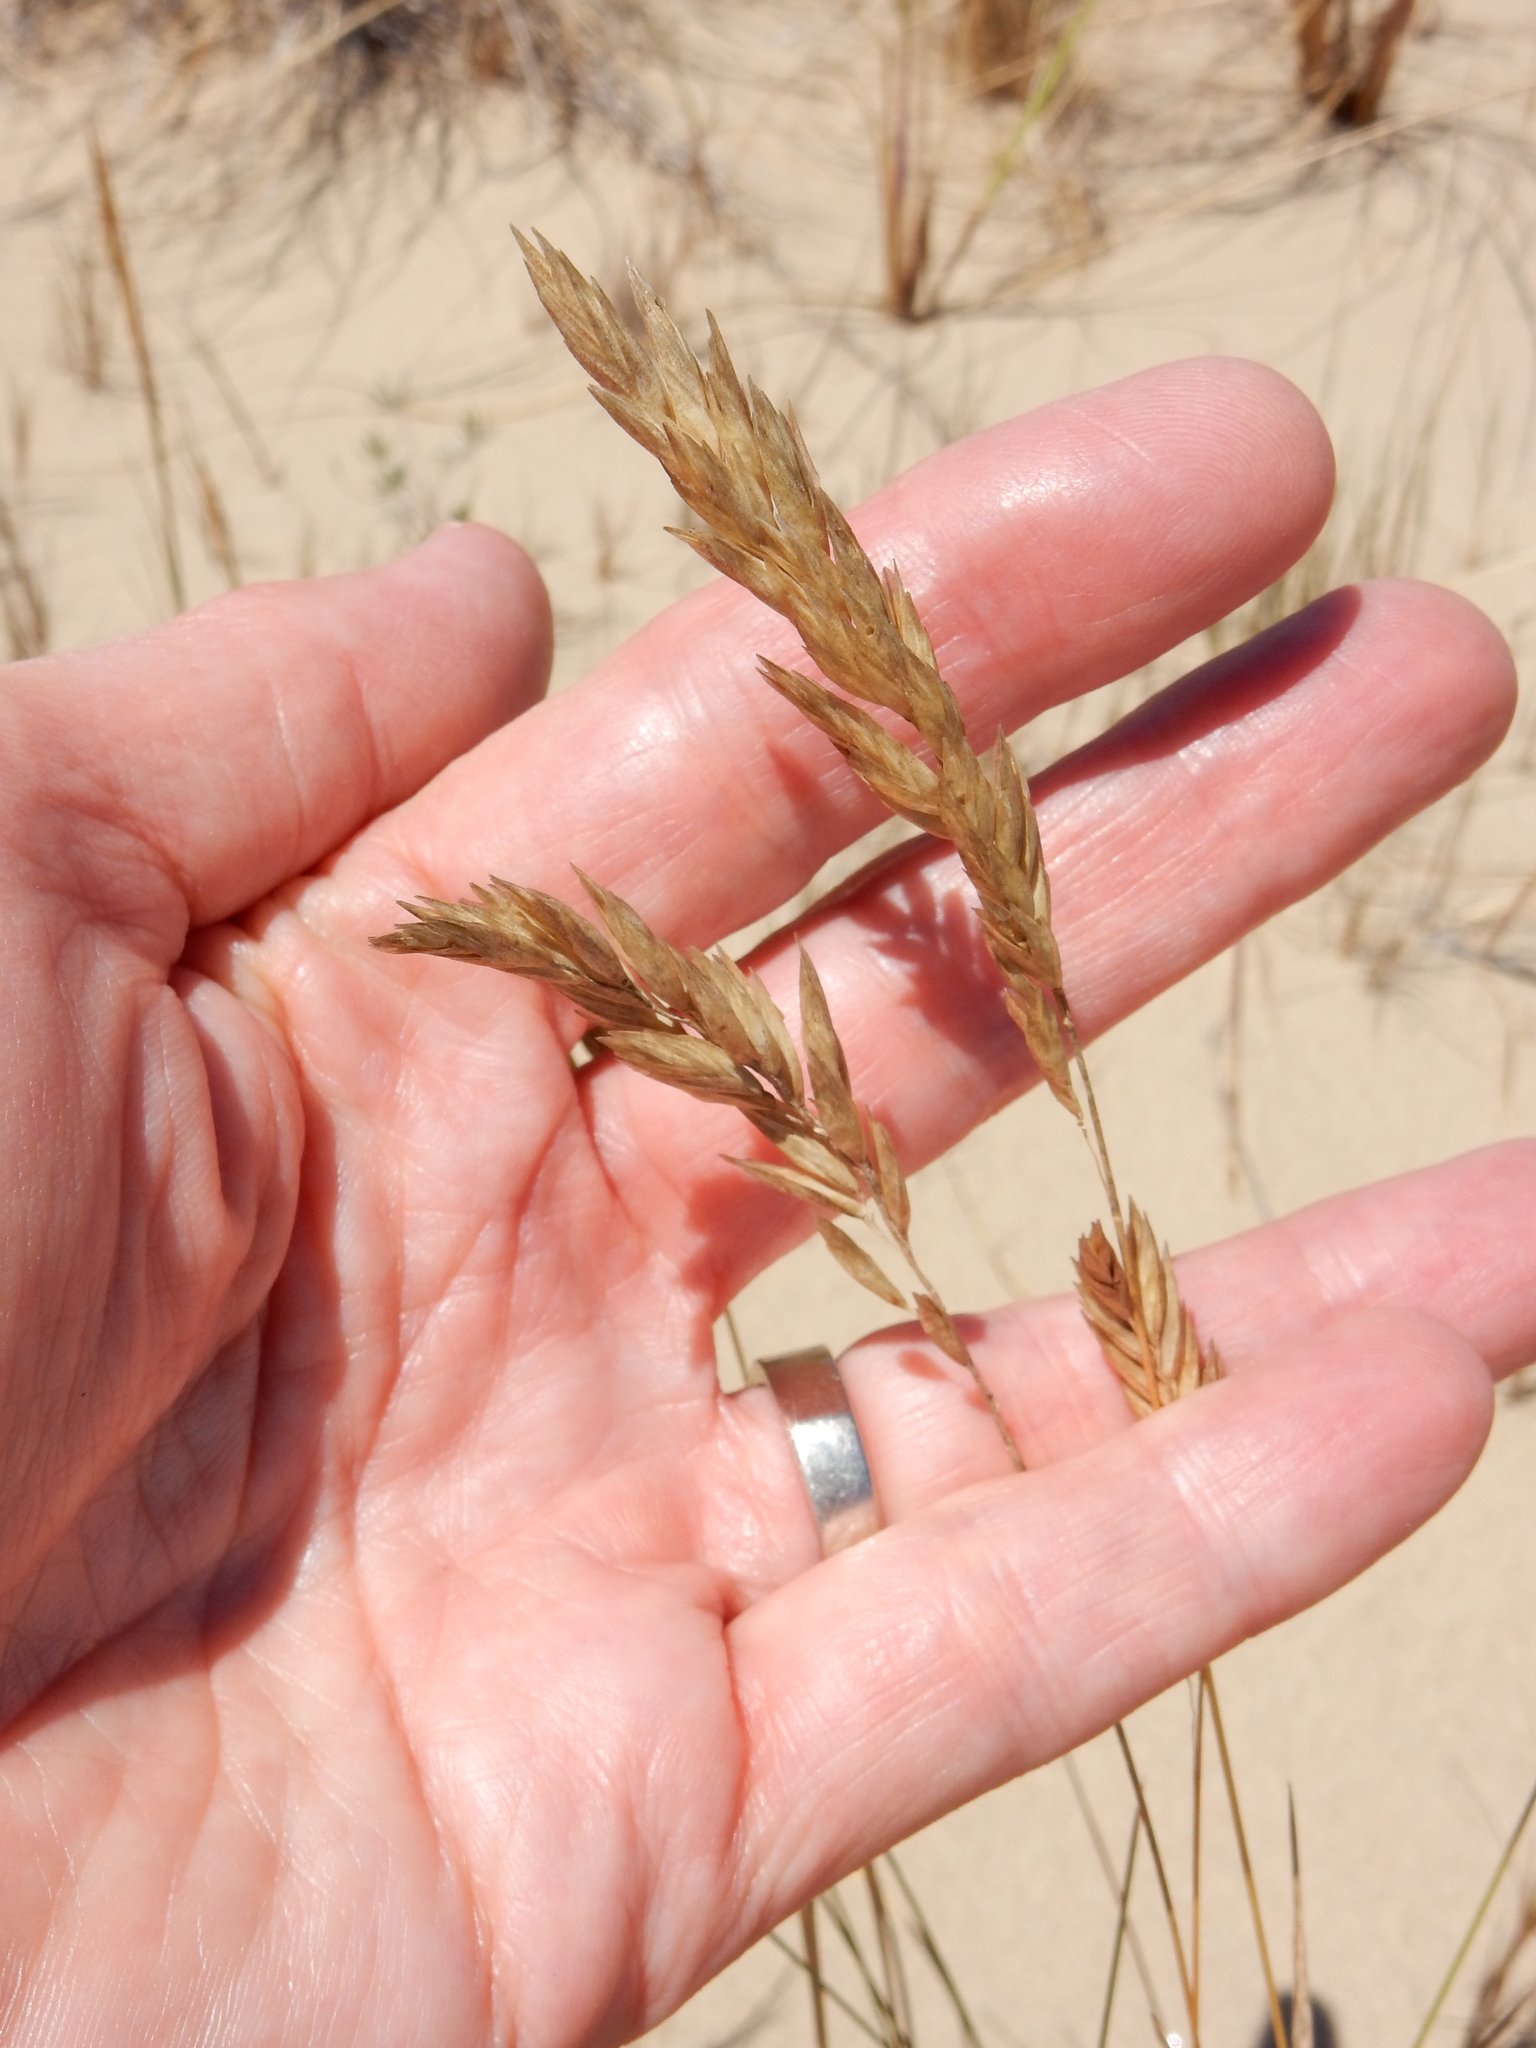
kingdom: Plantae
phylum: Tracheophyta
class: Liliopsida
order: Poales
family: Poaceae
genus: Poa
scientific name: Poa macrantha
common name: Dune bluegrass
